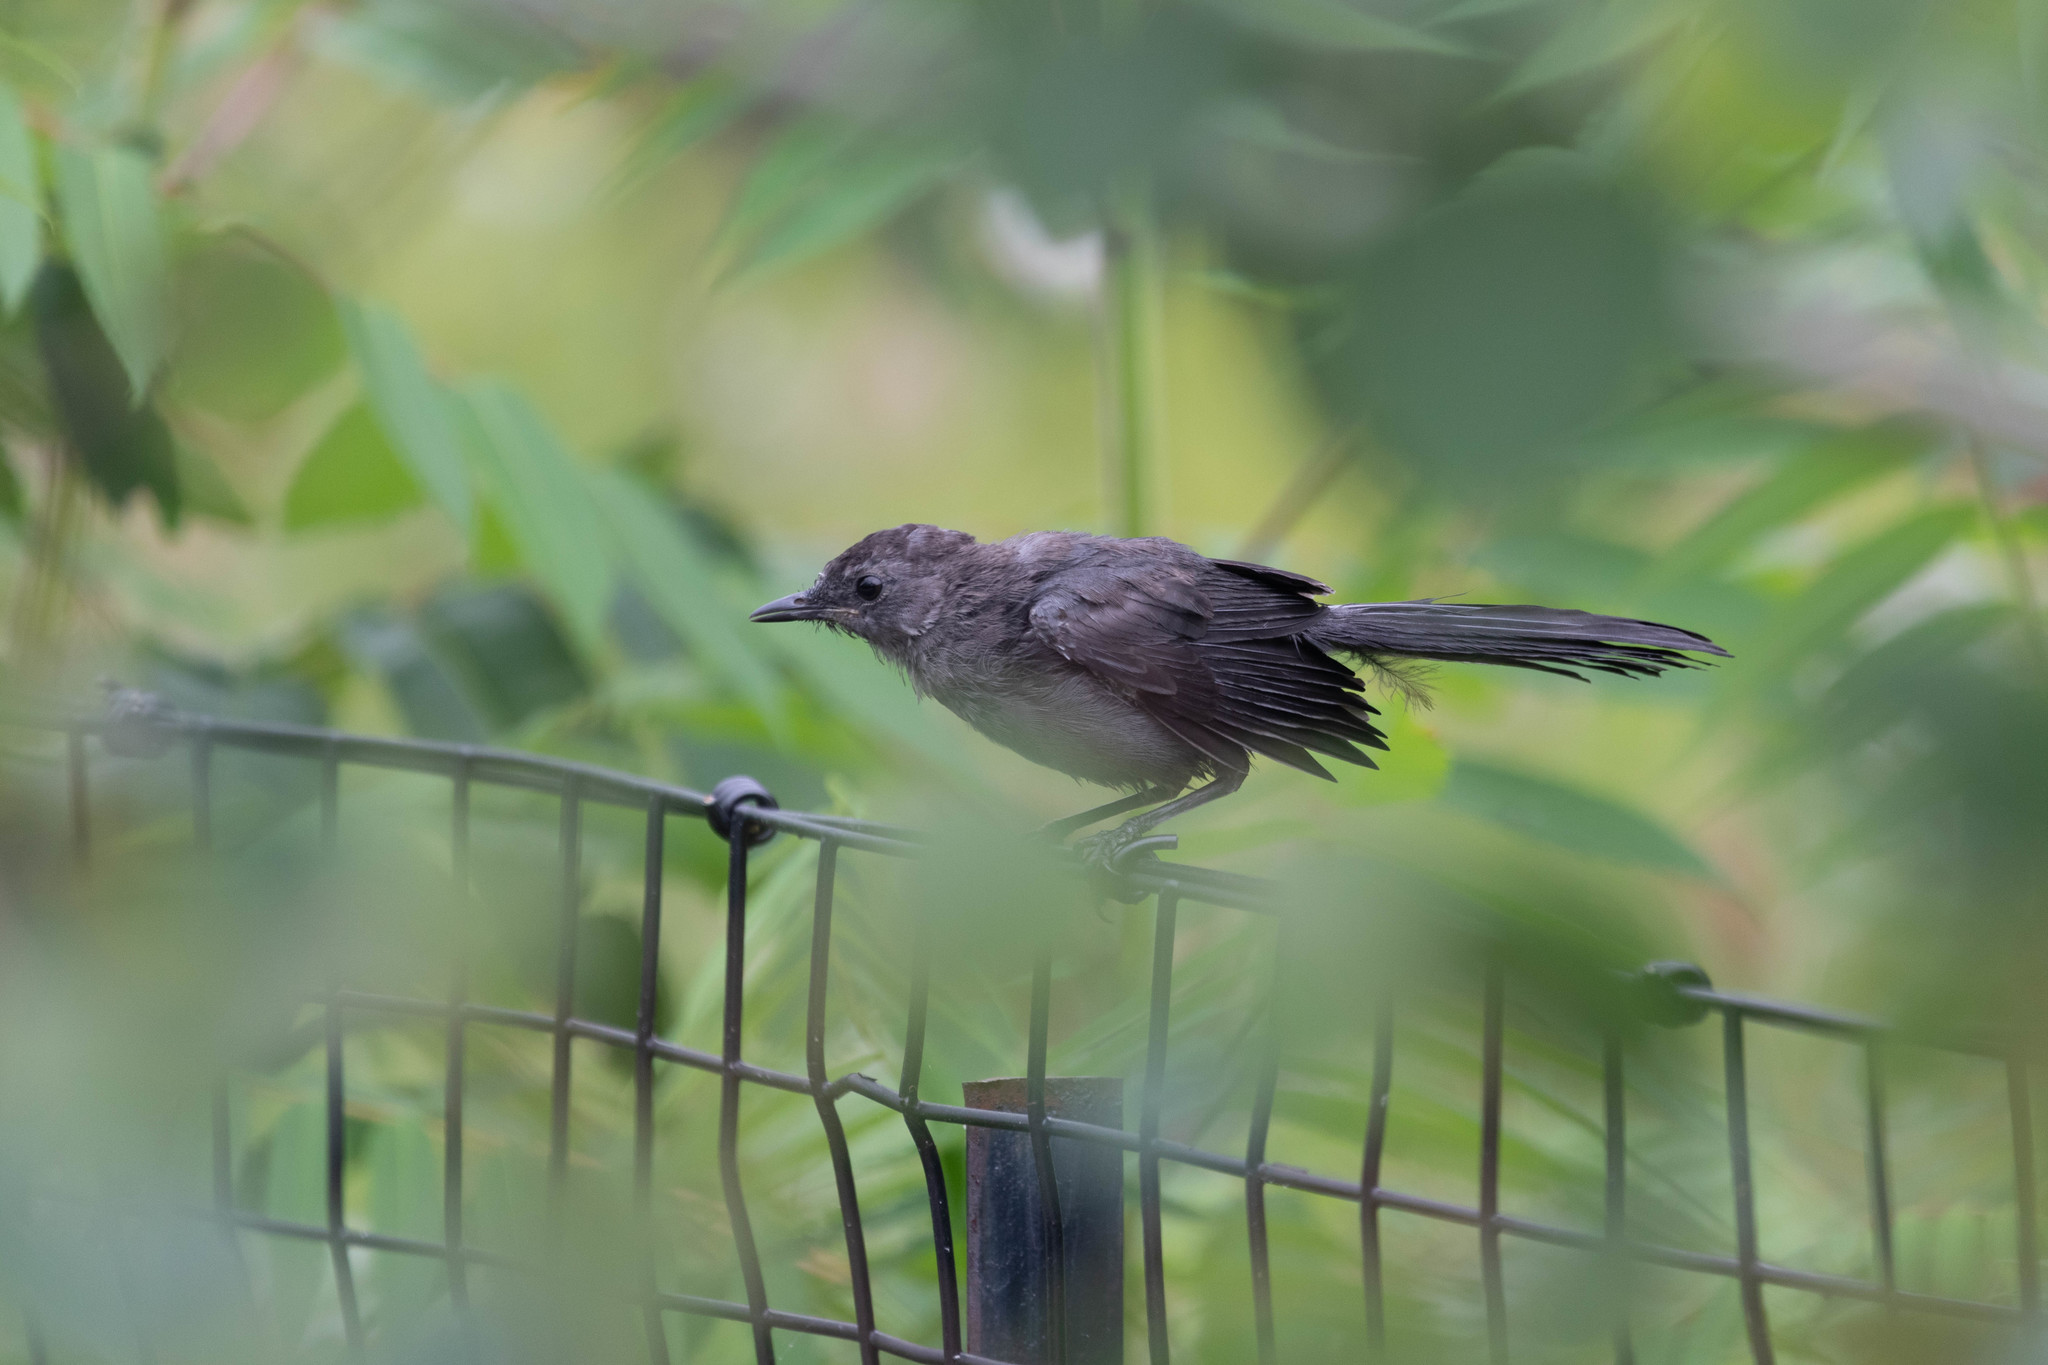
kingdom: Animalia
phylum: Chordata
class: Aves
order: Passeriformes
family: Mimidae
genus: Dumetella
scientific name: Dumetella carolinensis
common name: Gray catbird
